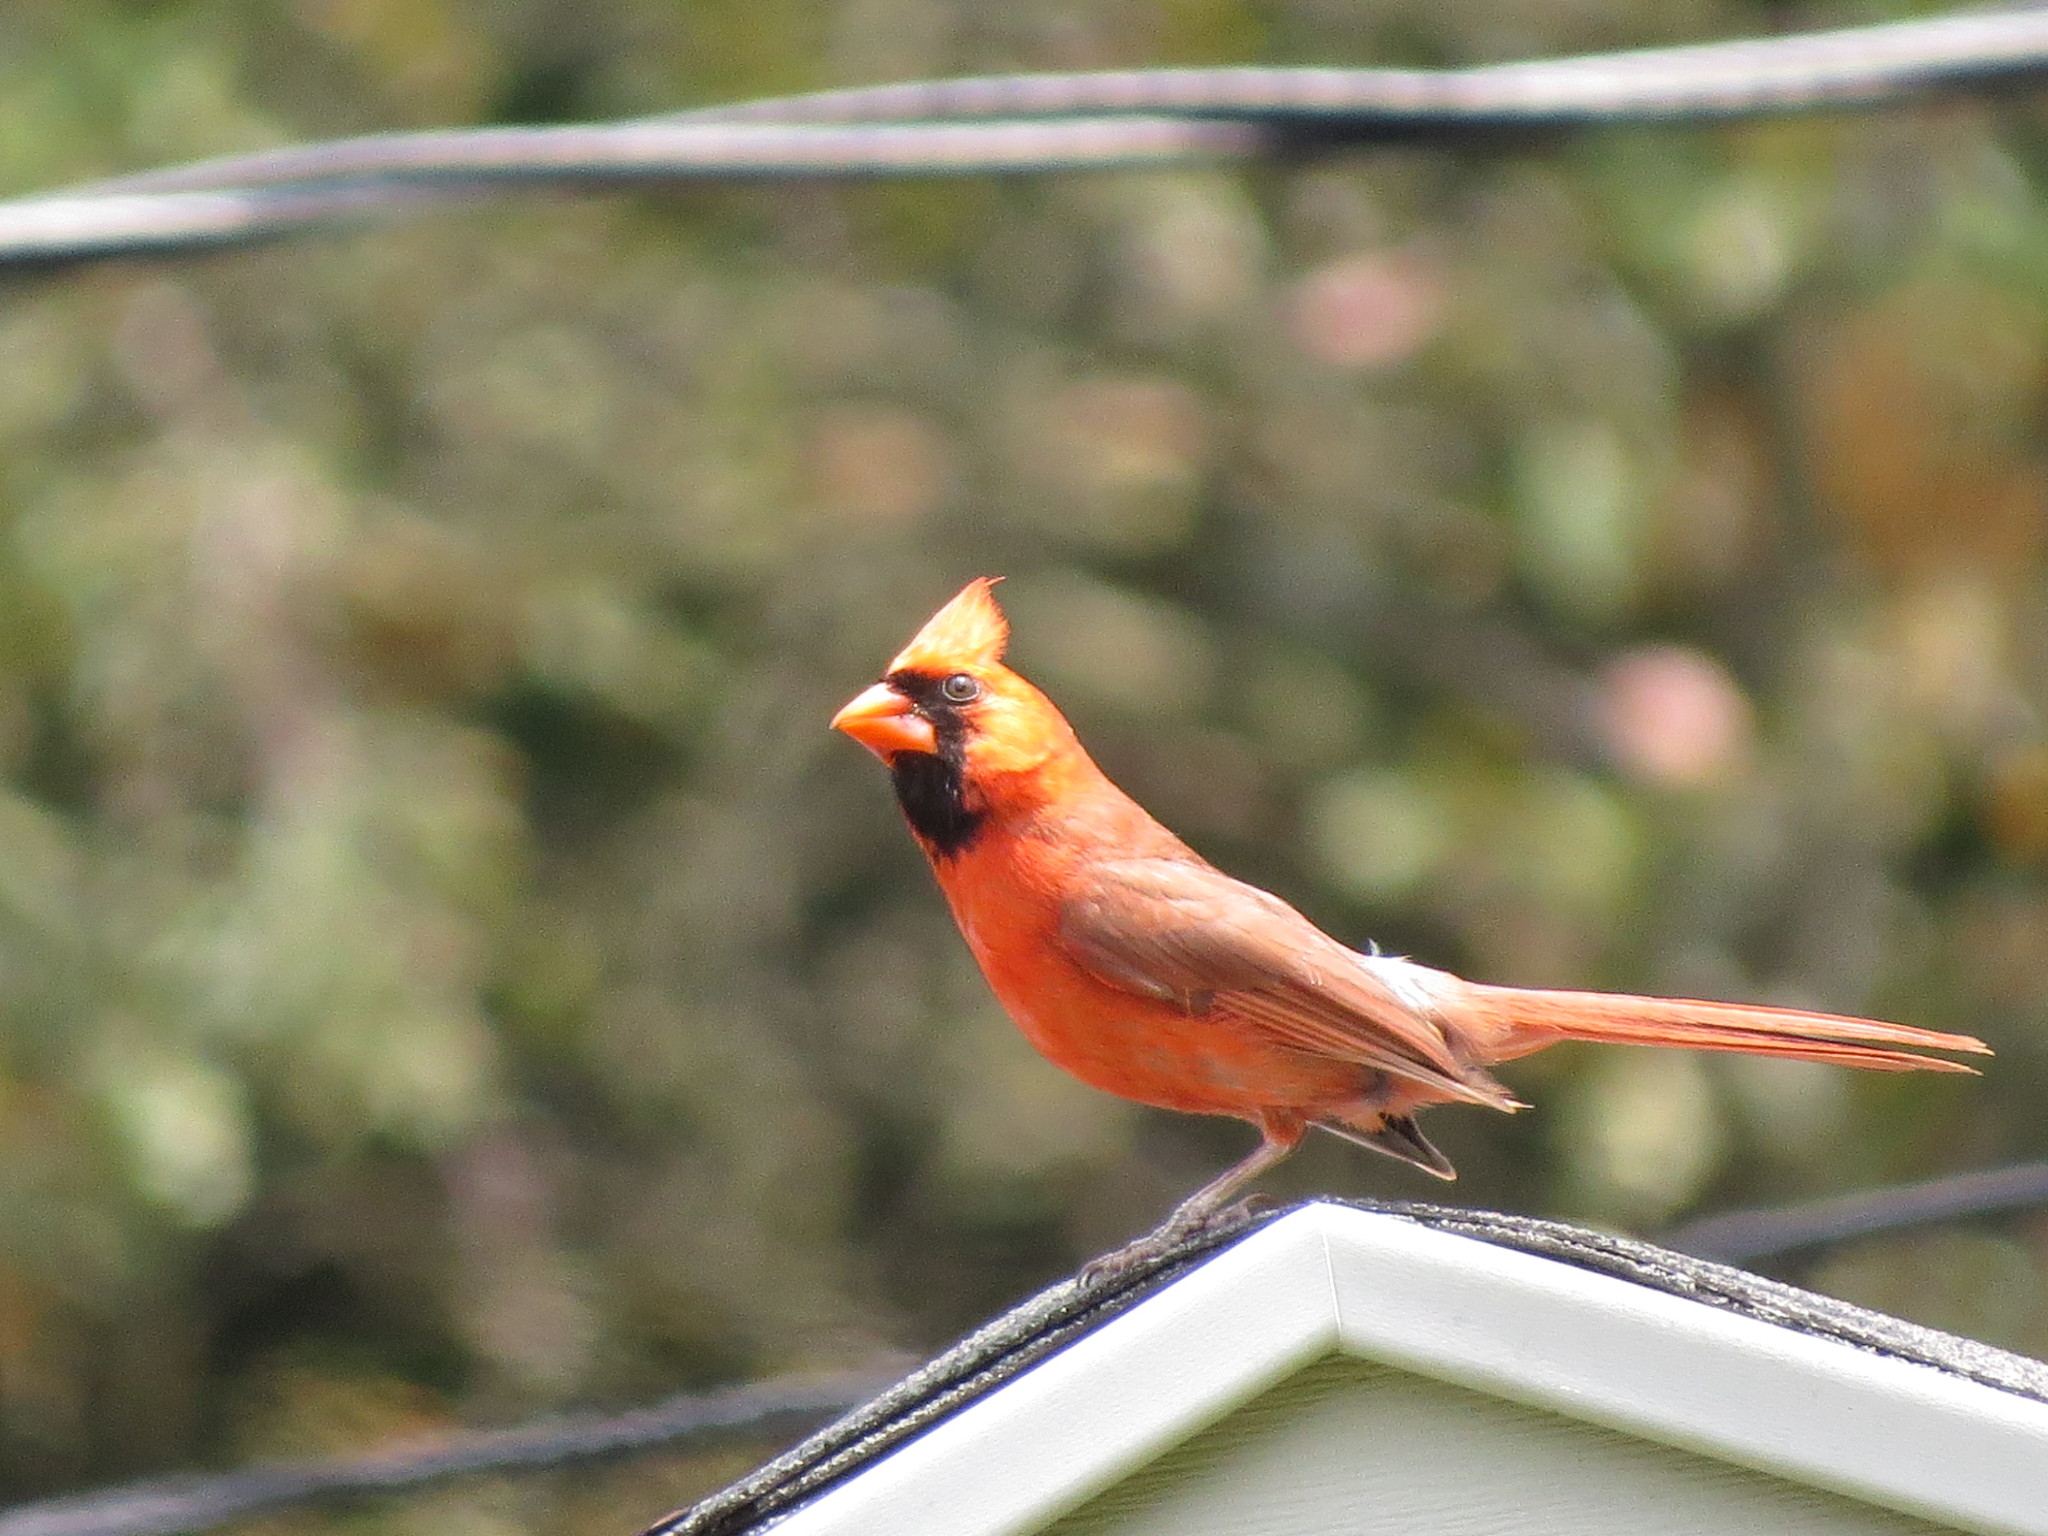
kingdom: Animalia
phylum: Chordata
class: Aves
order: Passeriformes
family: Cardinalidae
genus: Cardinalis
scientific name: Cardinalis cardinalis
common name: Northern cardinal
